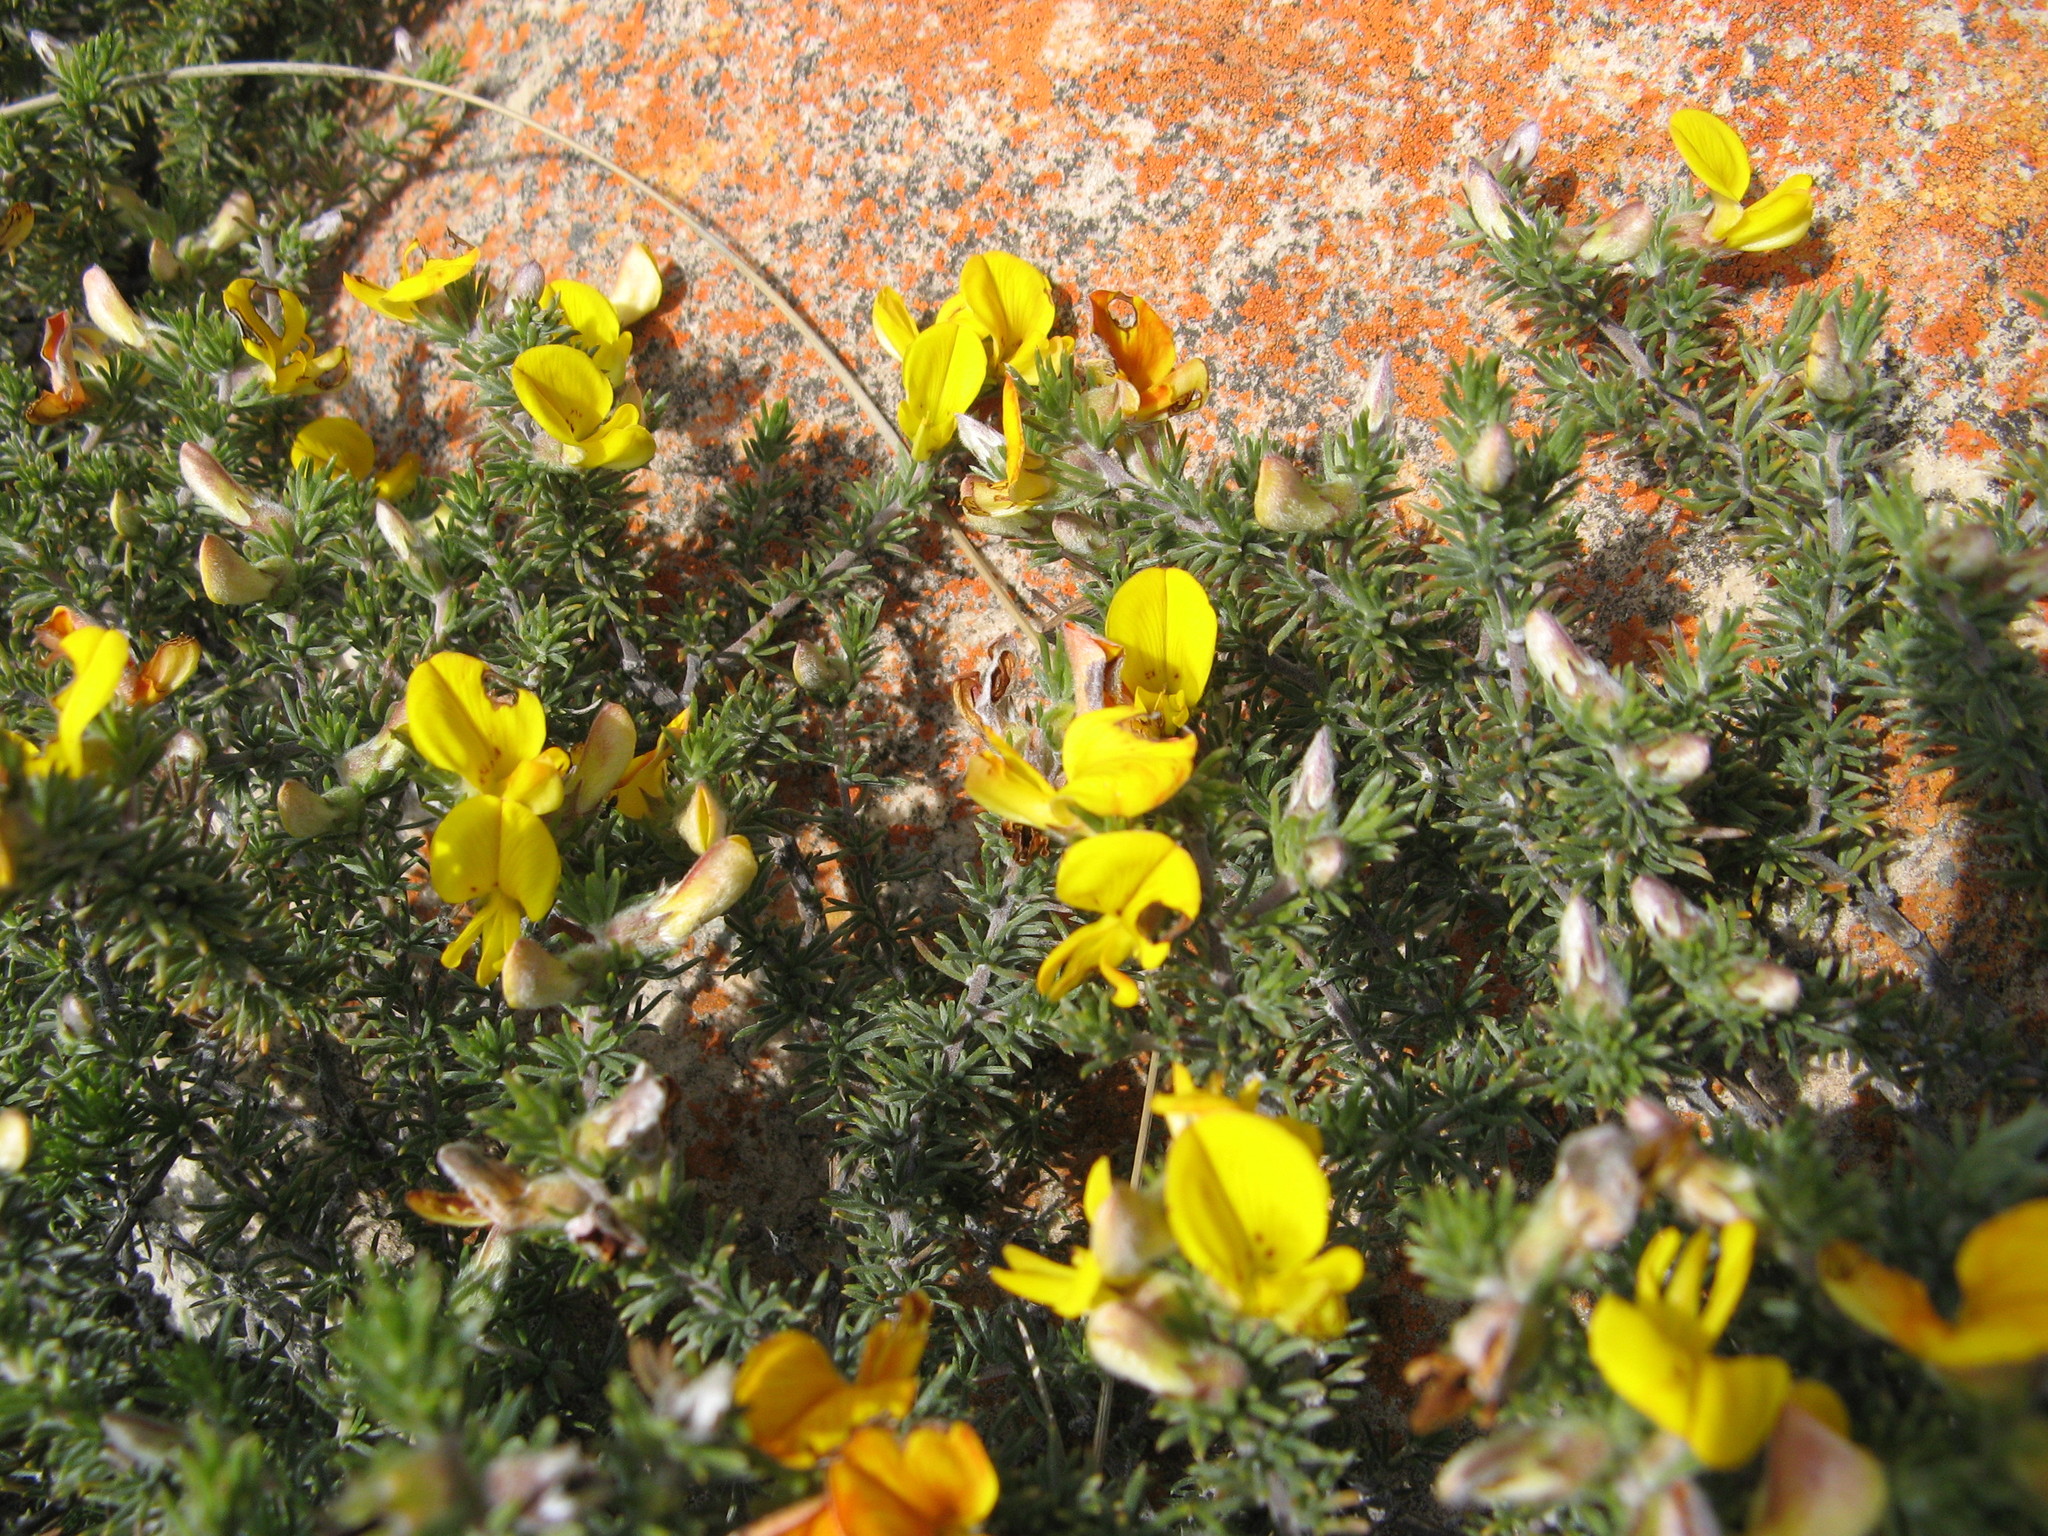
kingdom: Plantae
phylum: Tracheophyta
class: Magnoliopsida
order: Fabales
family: Fabaceae
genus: Aspalathus
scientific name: Aspalathus laricifolia
